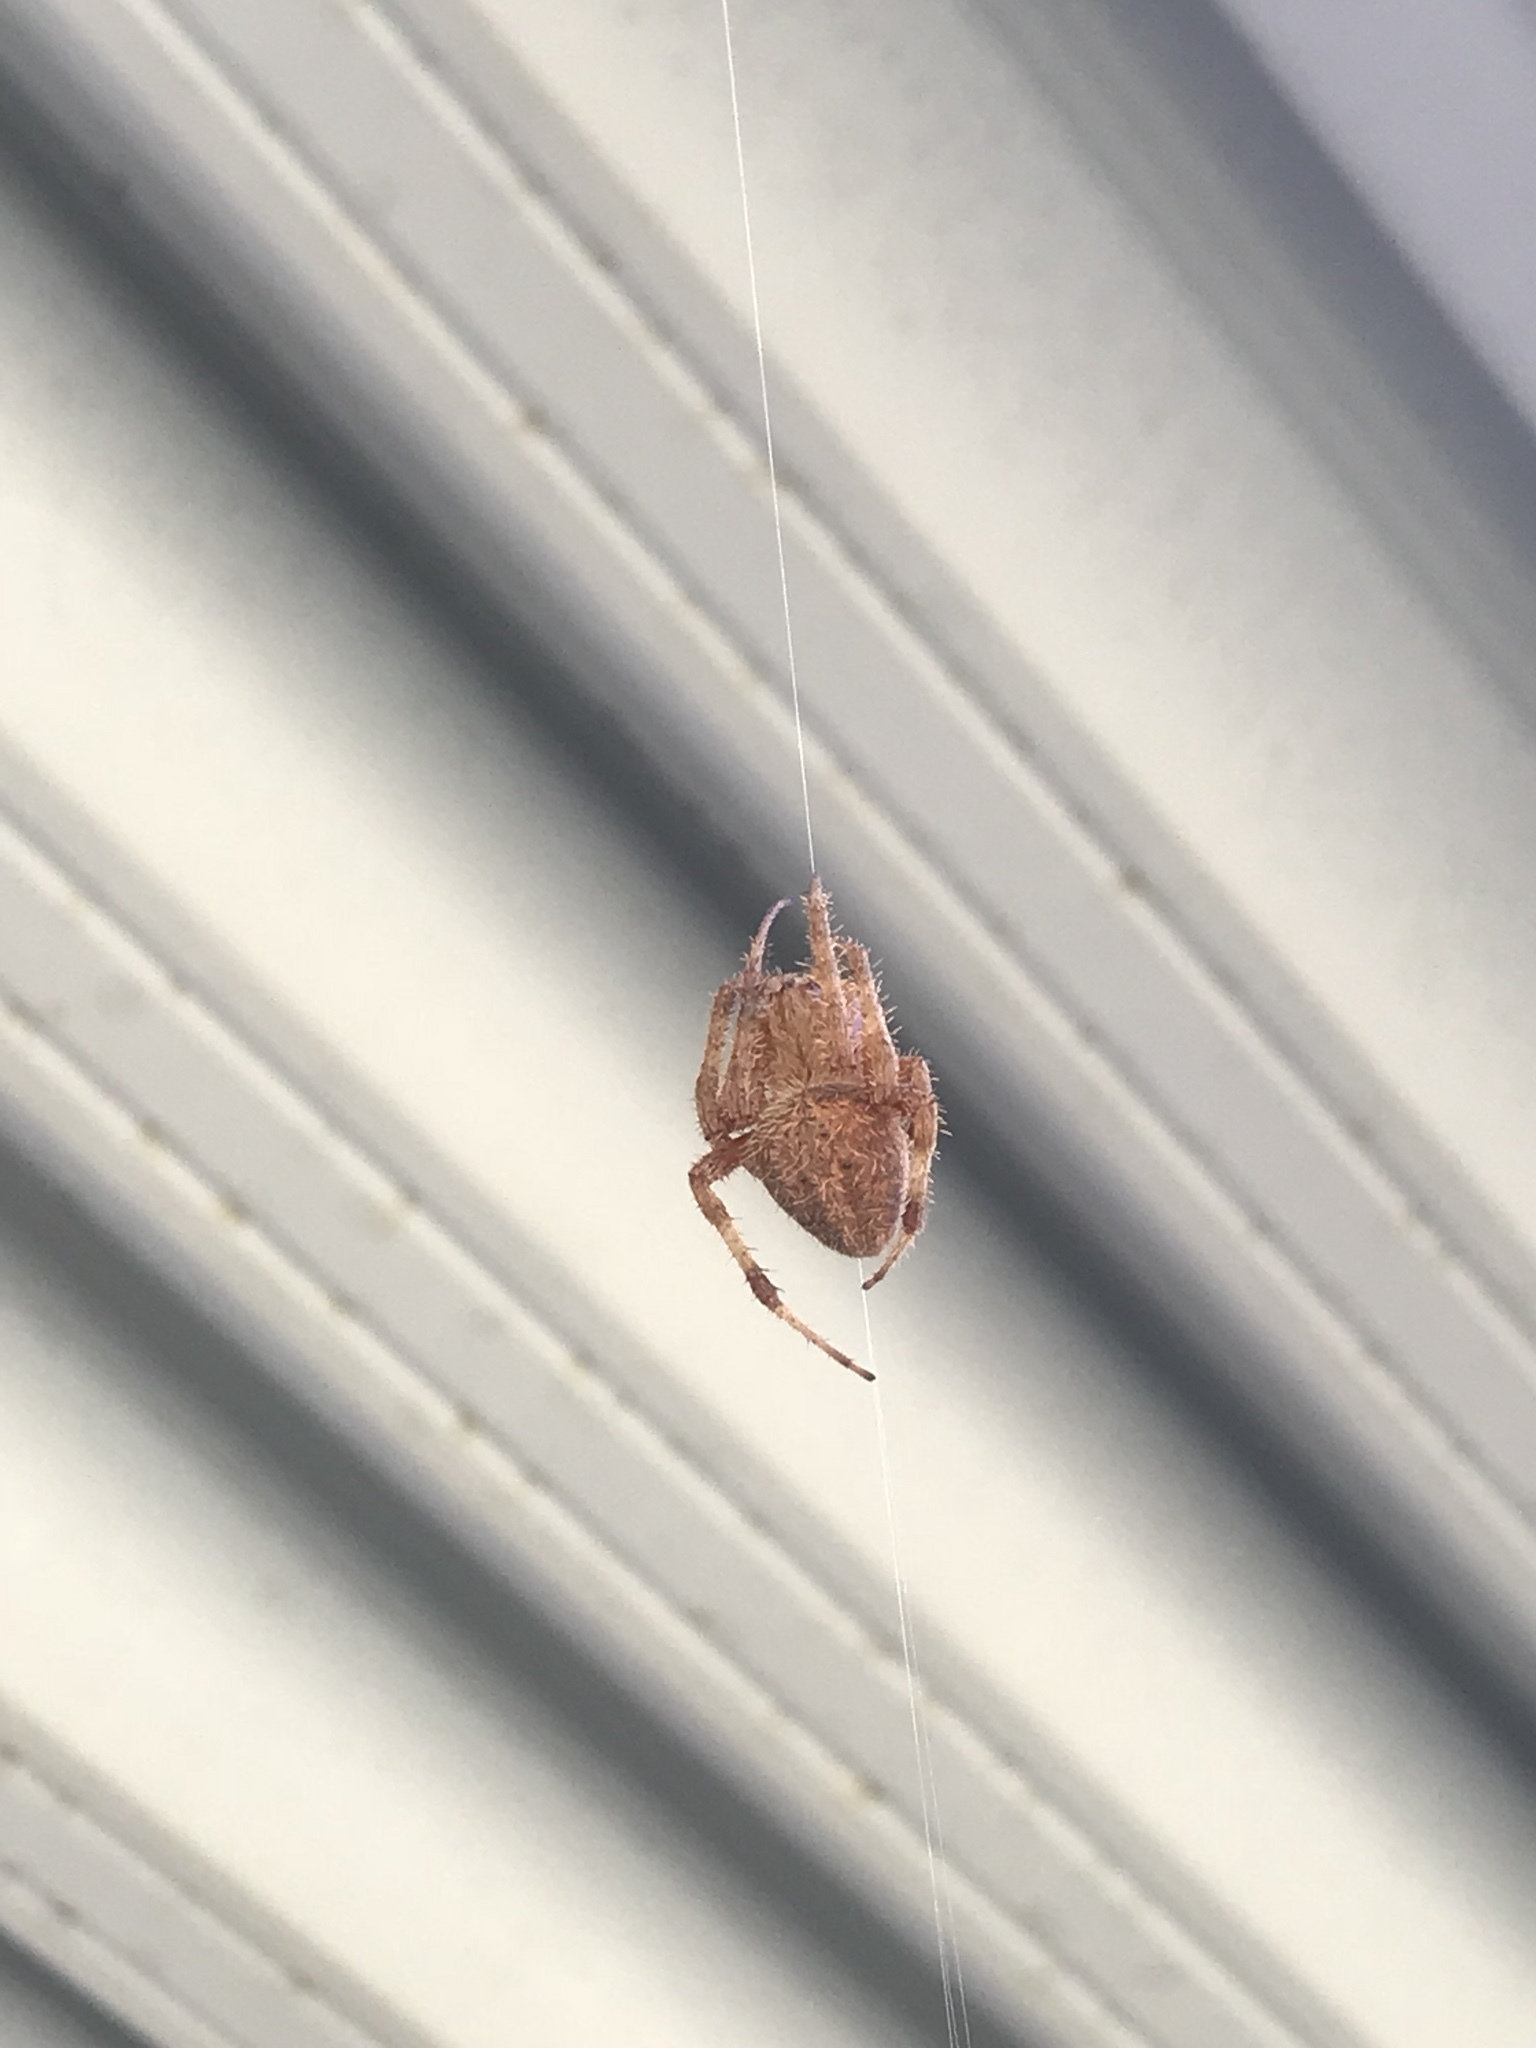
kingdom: Animalia
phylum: Arthropoda
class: Arachnida
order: Araneae
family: Araneidae
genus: Neoscona
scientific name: Neoscona crucifera
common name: Spotted orbweaver
